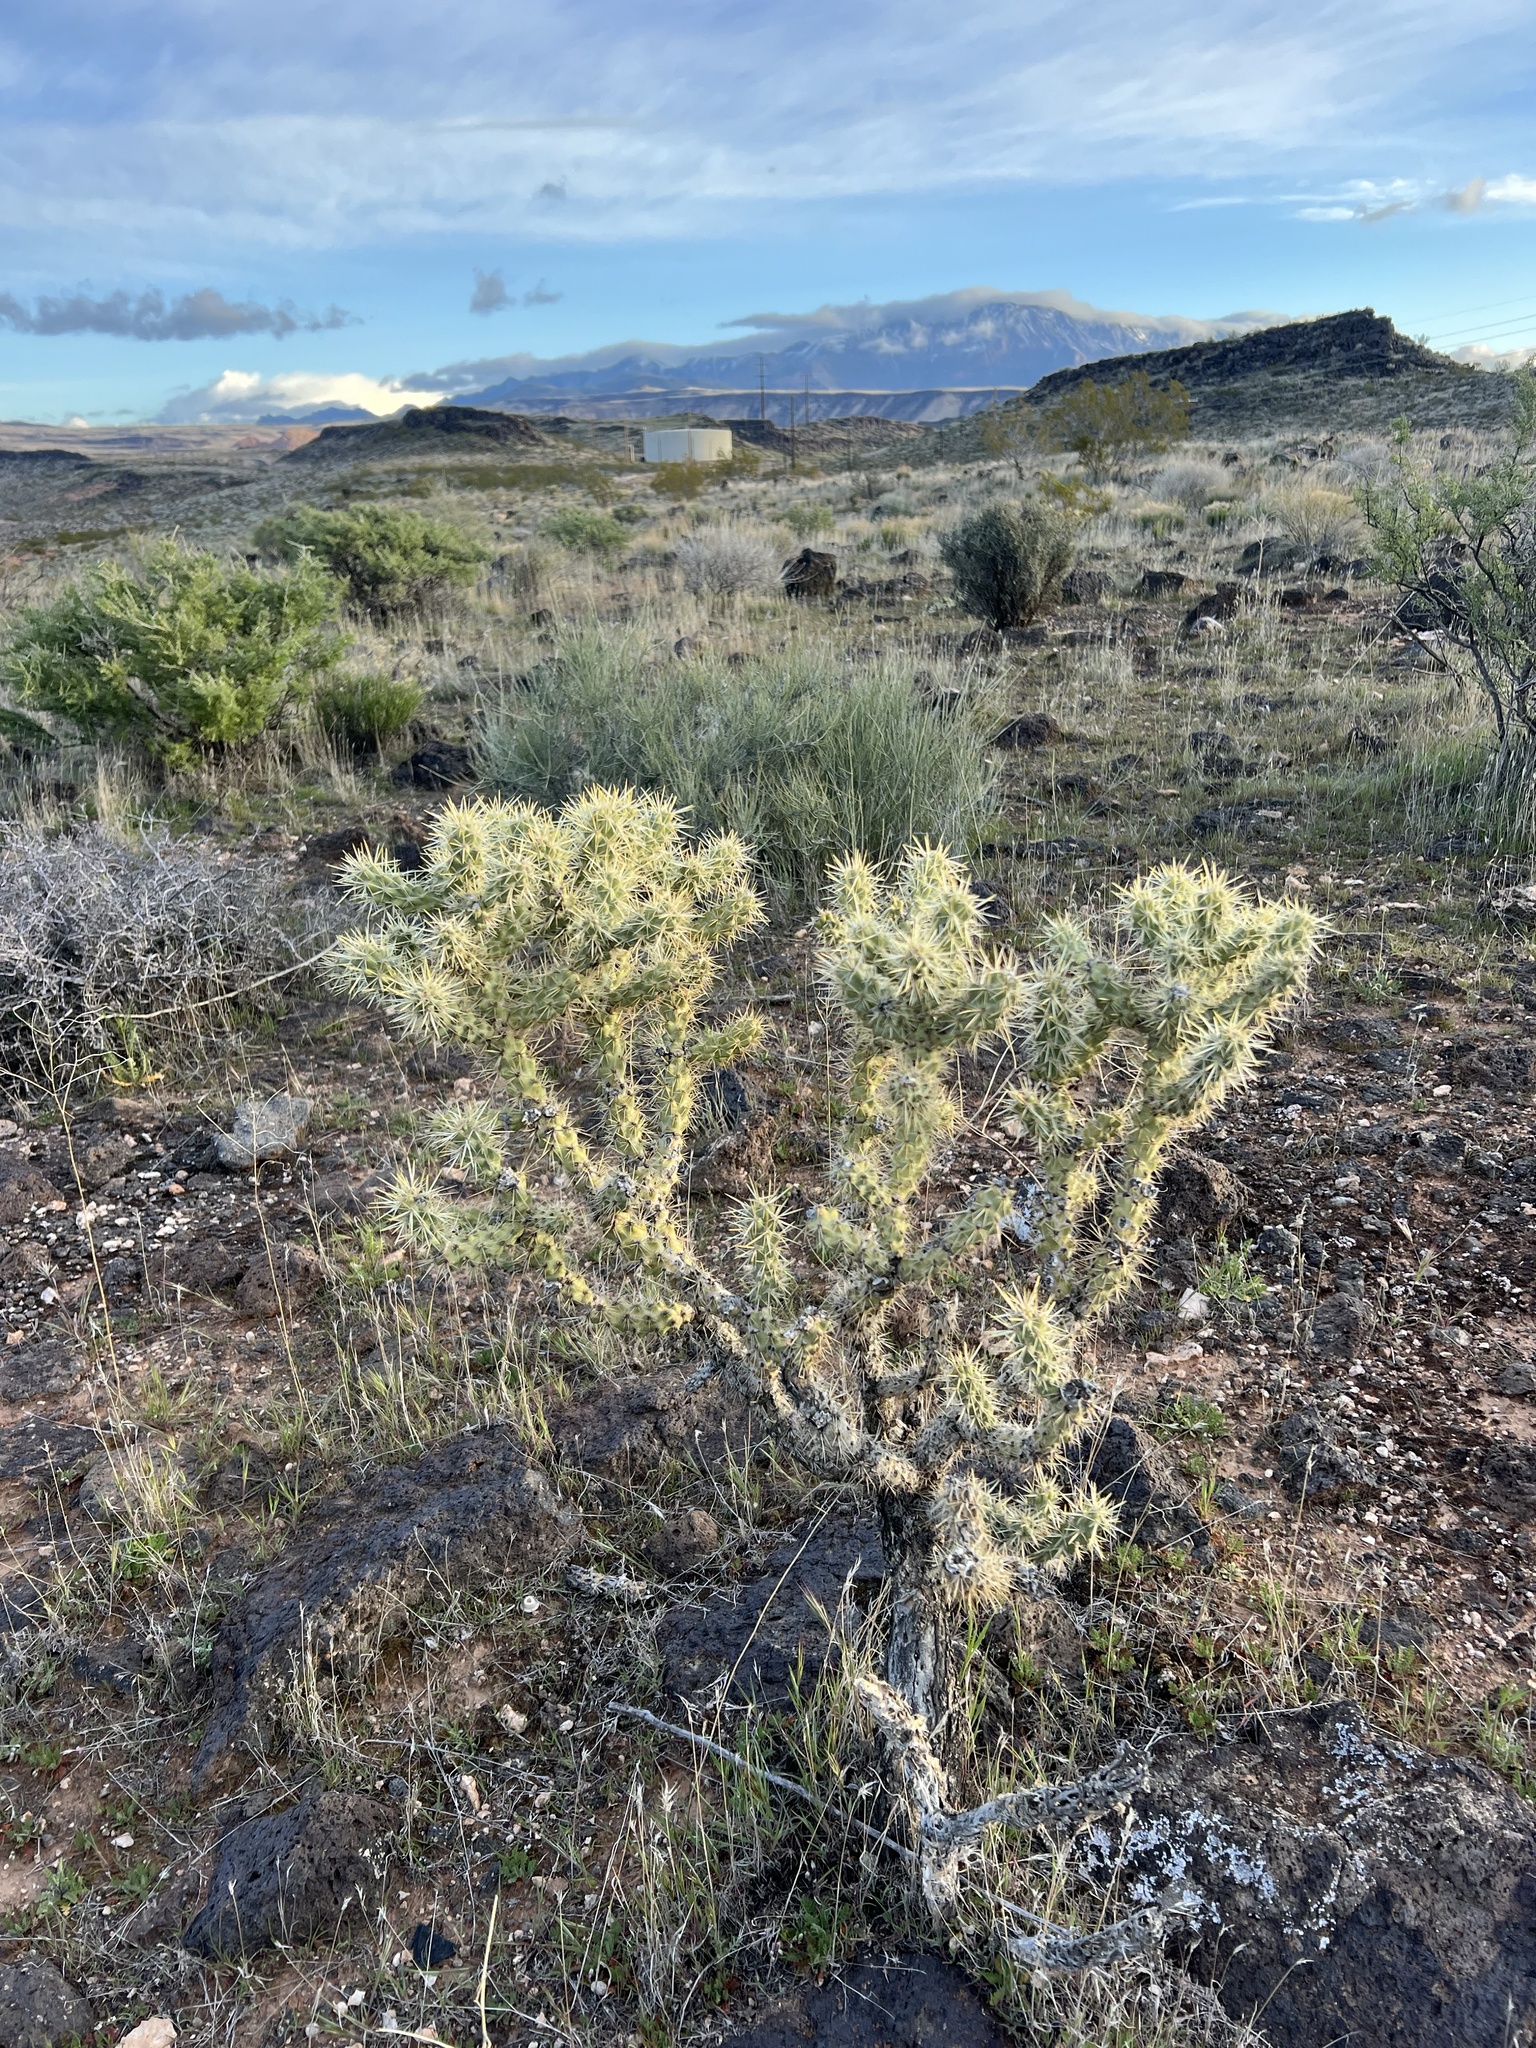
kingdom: Plantae
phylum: Tracheophyta
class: Magnoliopsida
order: Caryophyllales
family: Cactaceae
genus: Cylindropuntia
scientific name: Cylindropuntia echinocarpa
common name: Ground cholla
